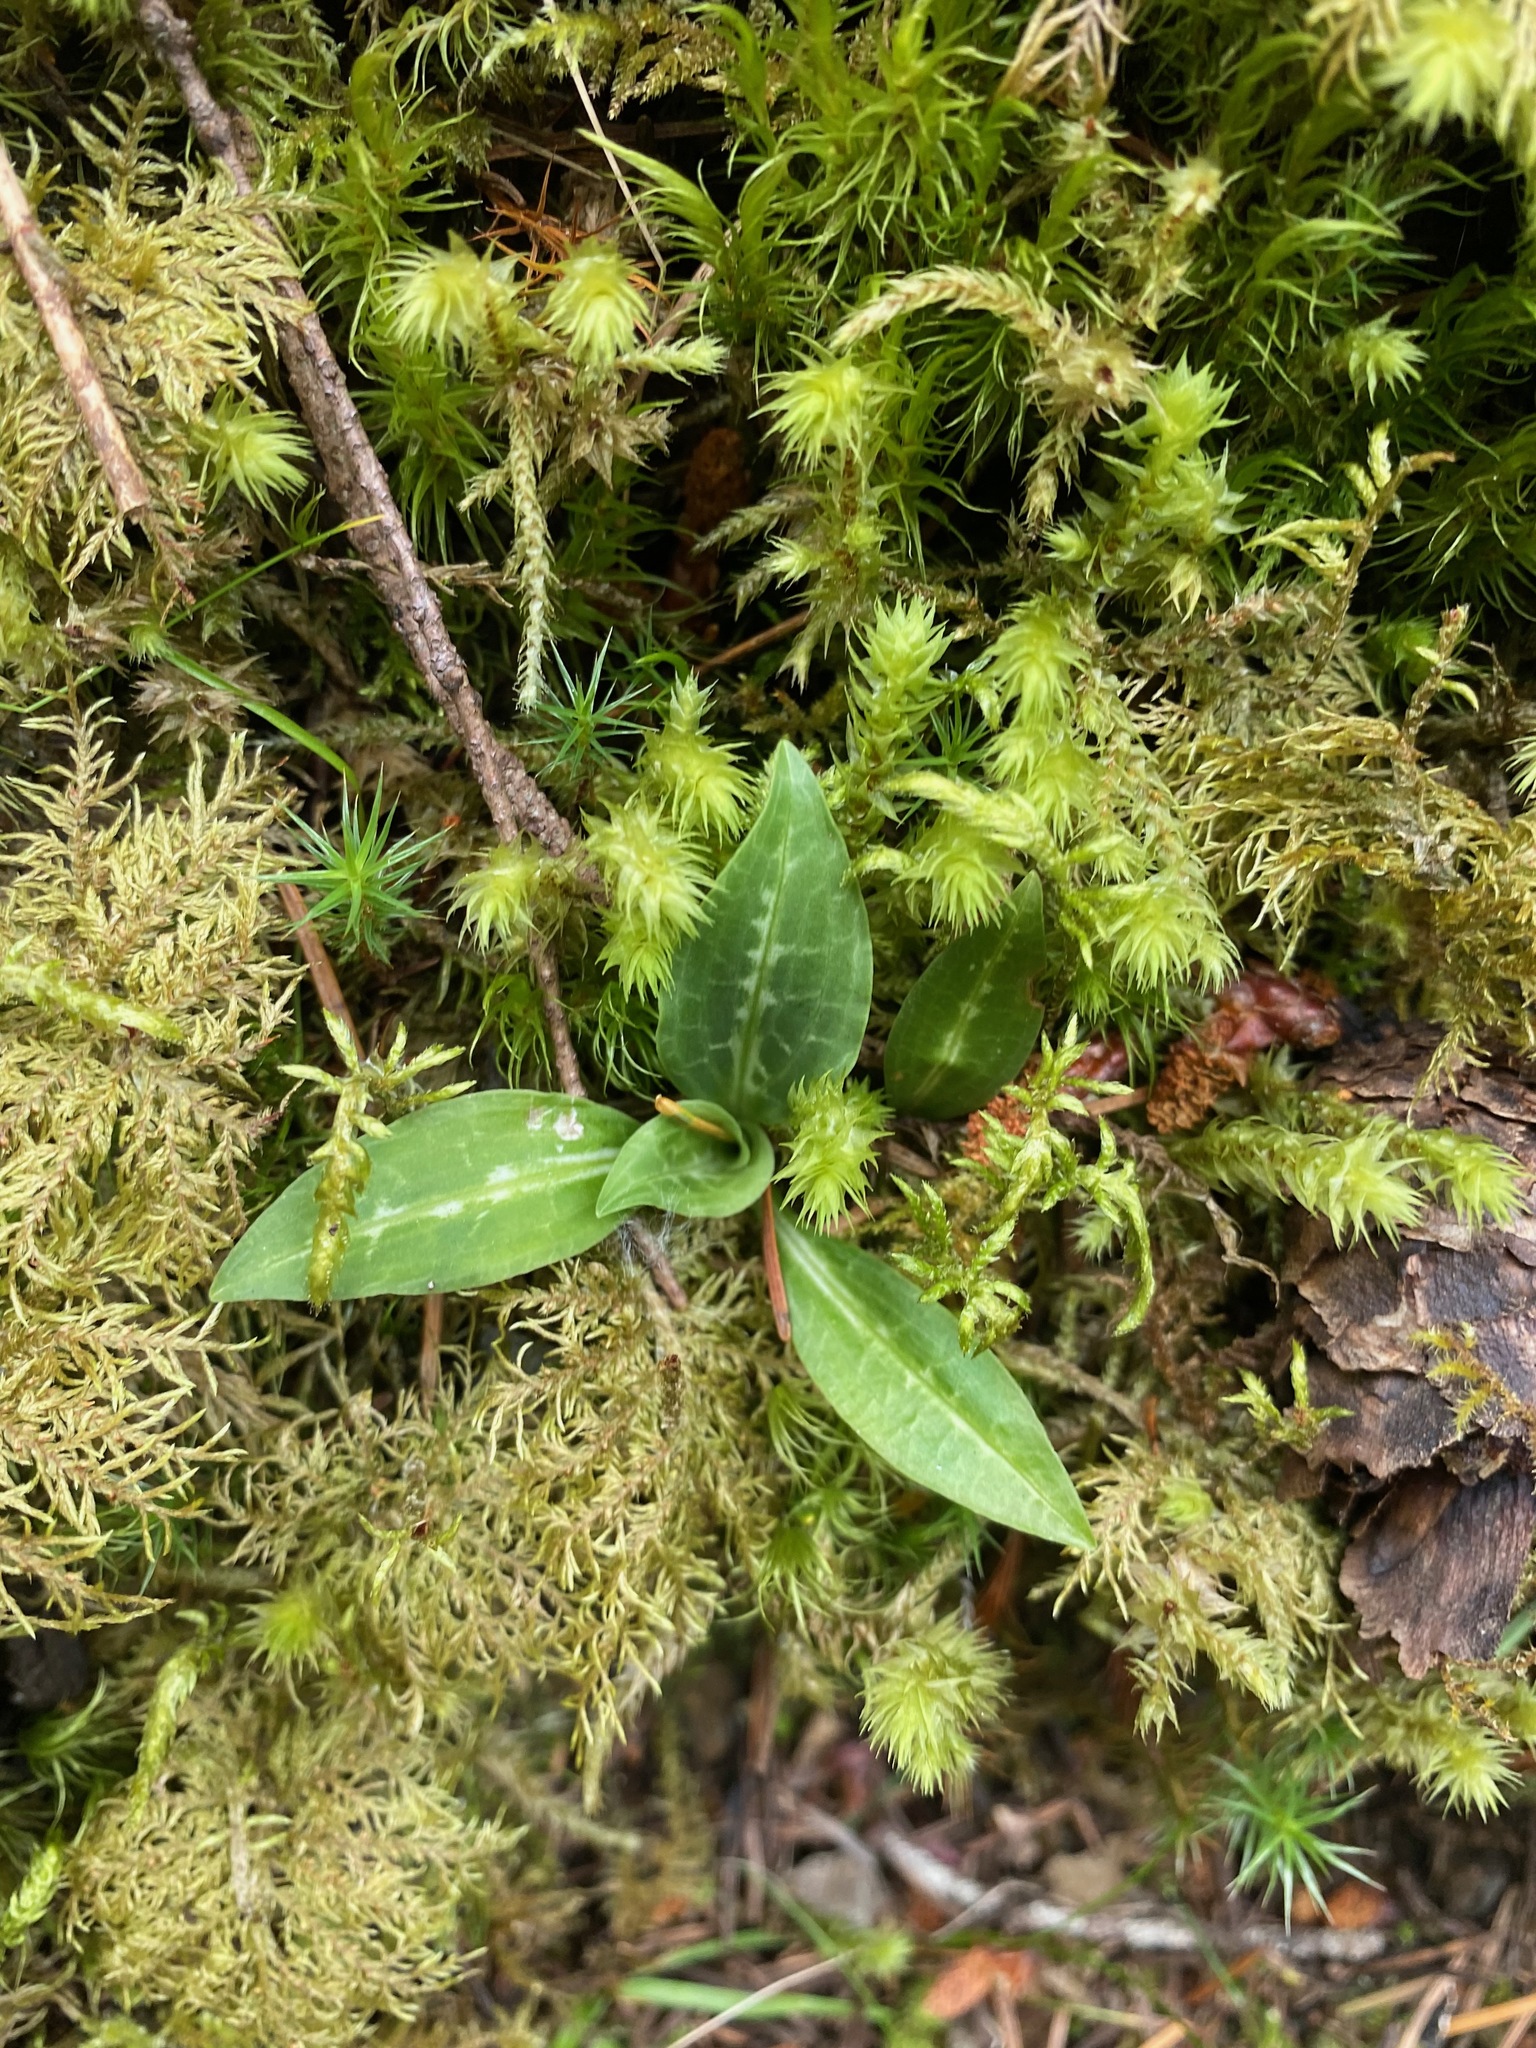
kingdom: Plantae
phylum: Tracheophyta
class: Liliopsida
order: Asparagales
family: Orchidaceae
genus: Goodyera
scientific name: Goodyera oblongifolia
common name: Giant rattlesnake-plantain
